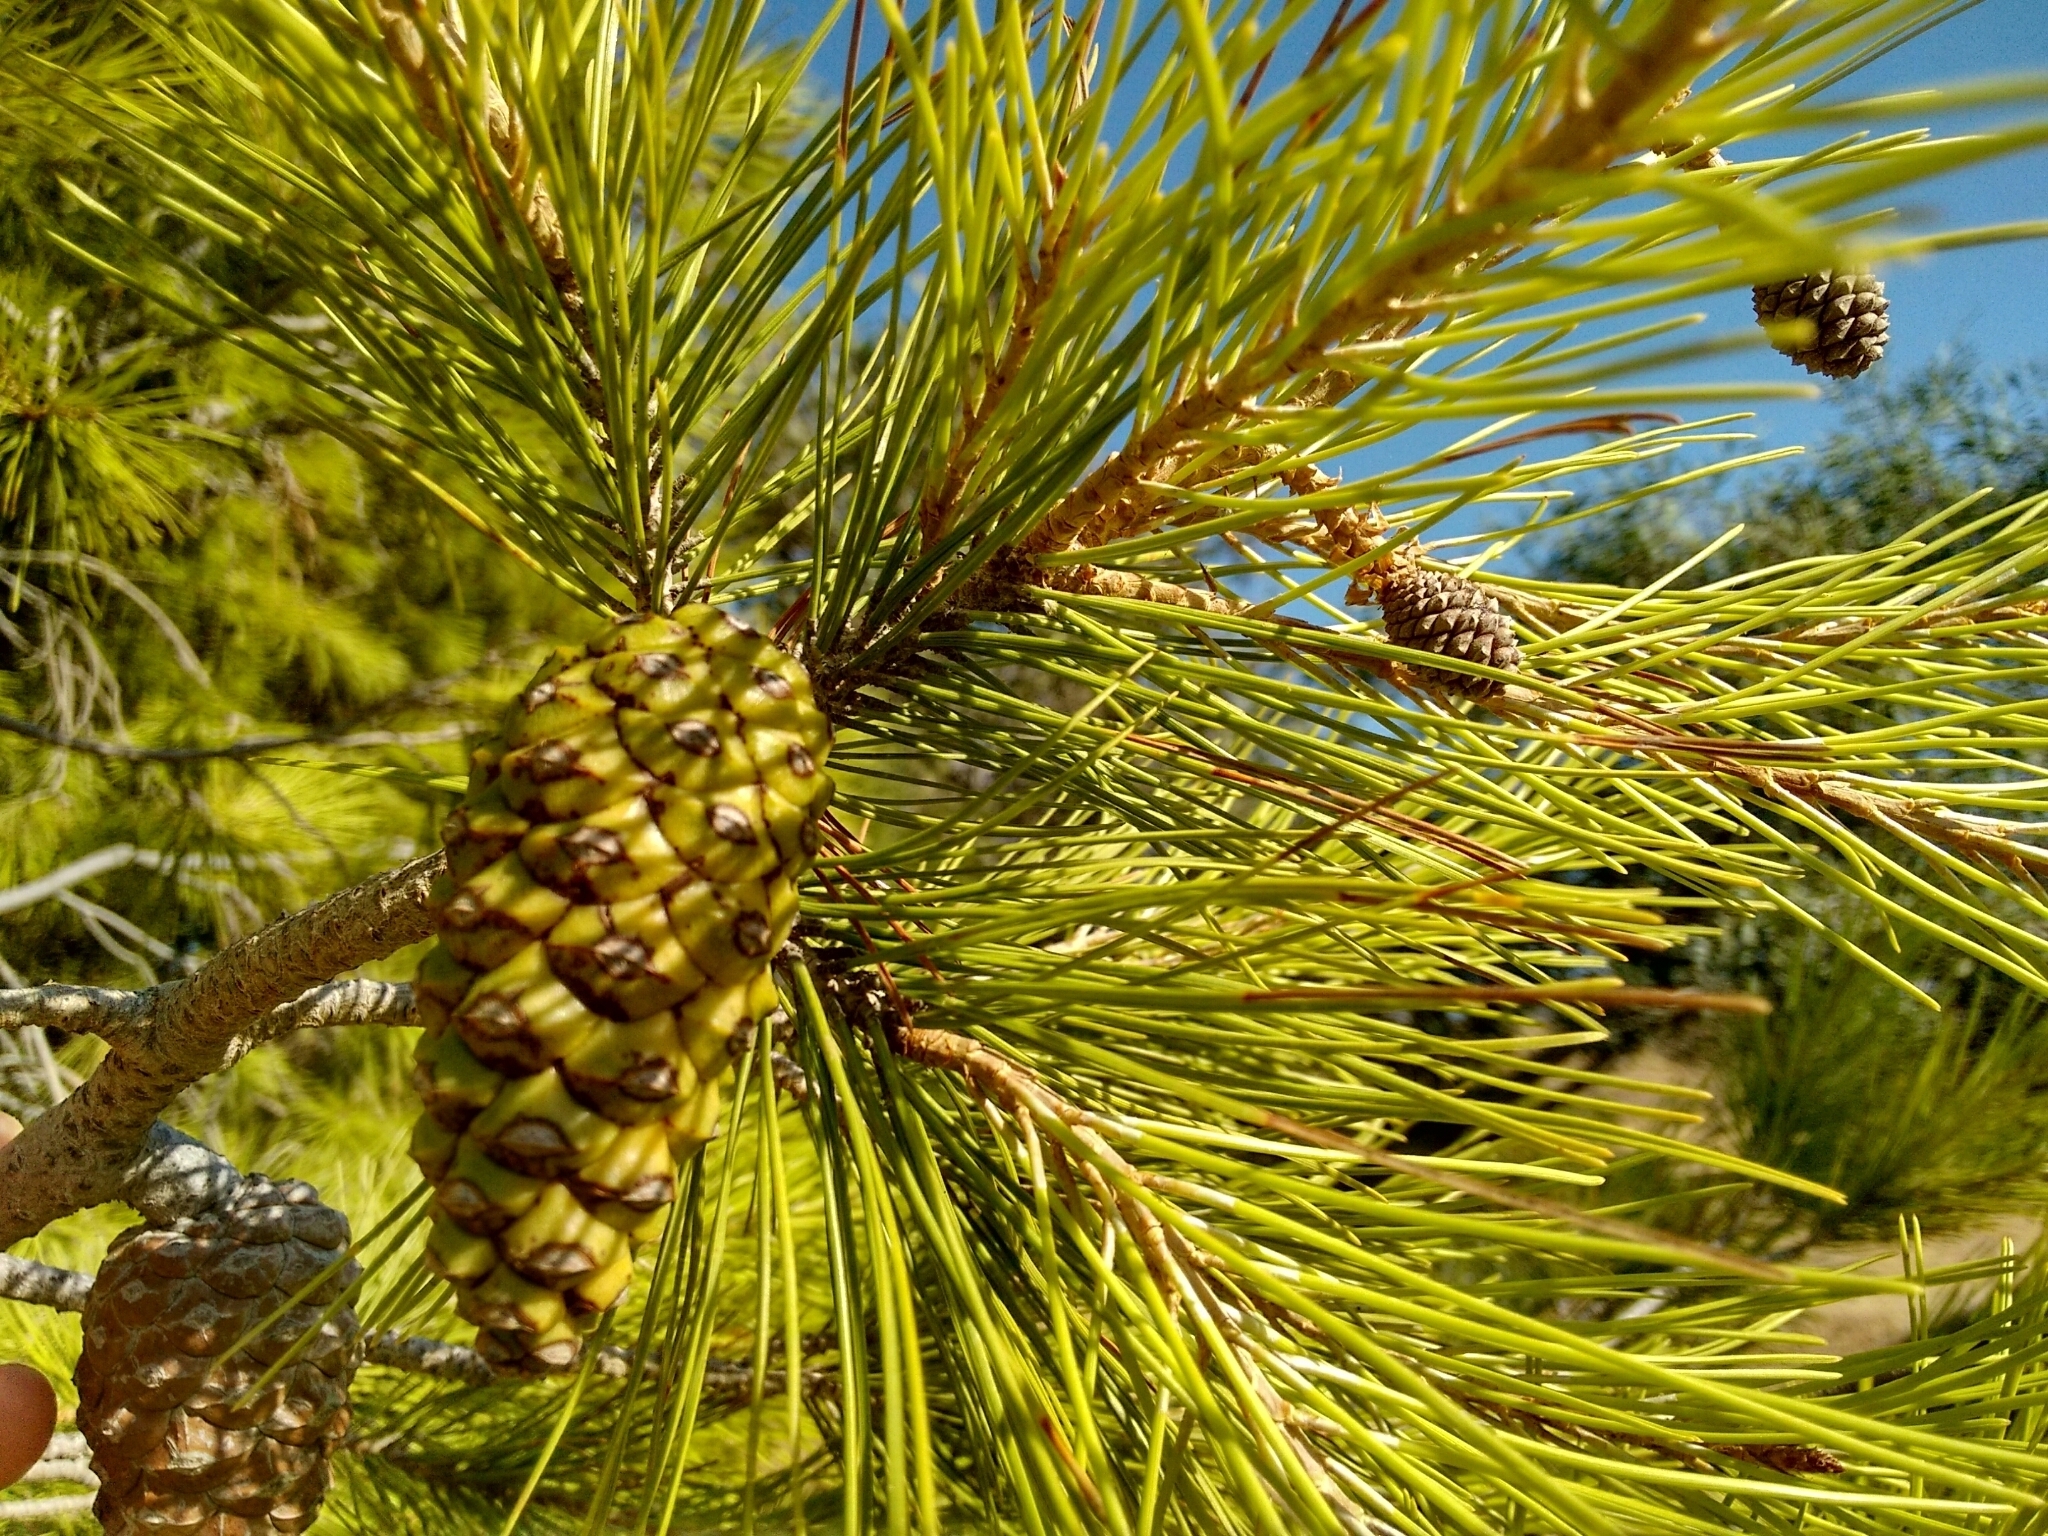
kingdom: Plantae
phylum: Tracheophyta
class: Pinopsida
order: Pinales
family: Pinaceae
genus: Pinus
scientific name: Pinus halepensis
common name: Aleppo pine
